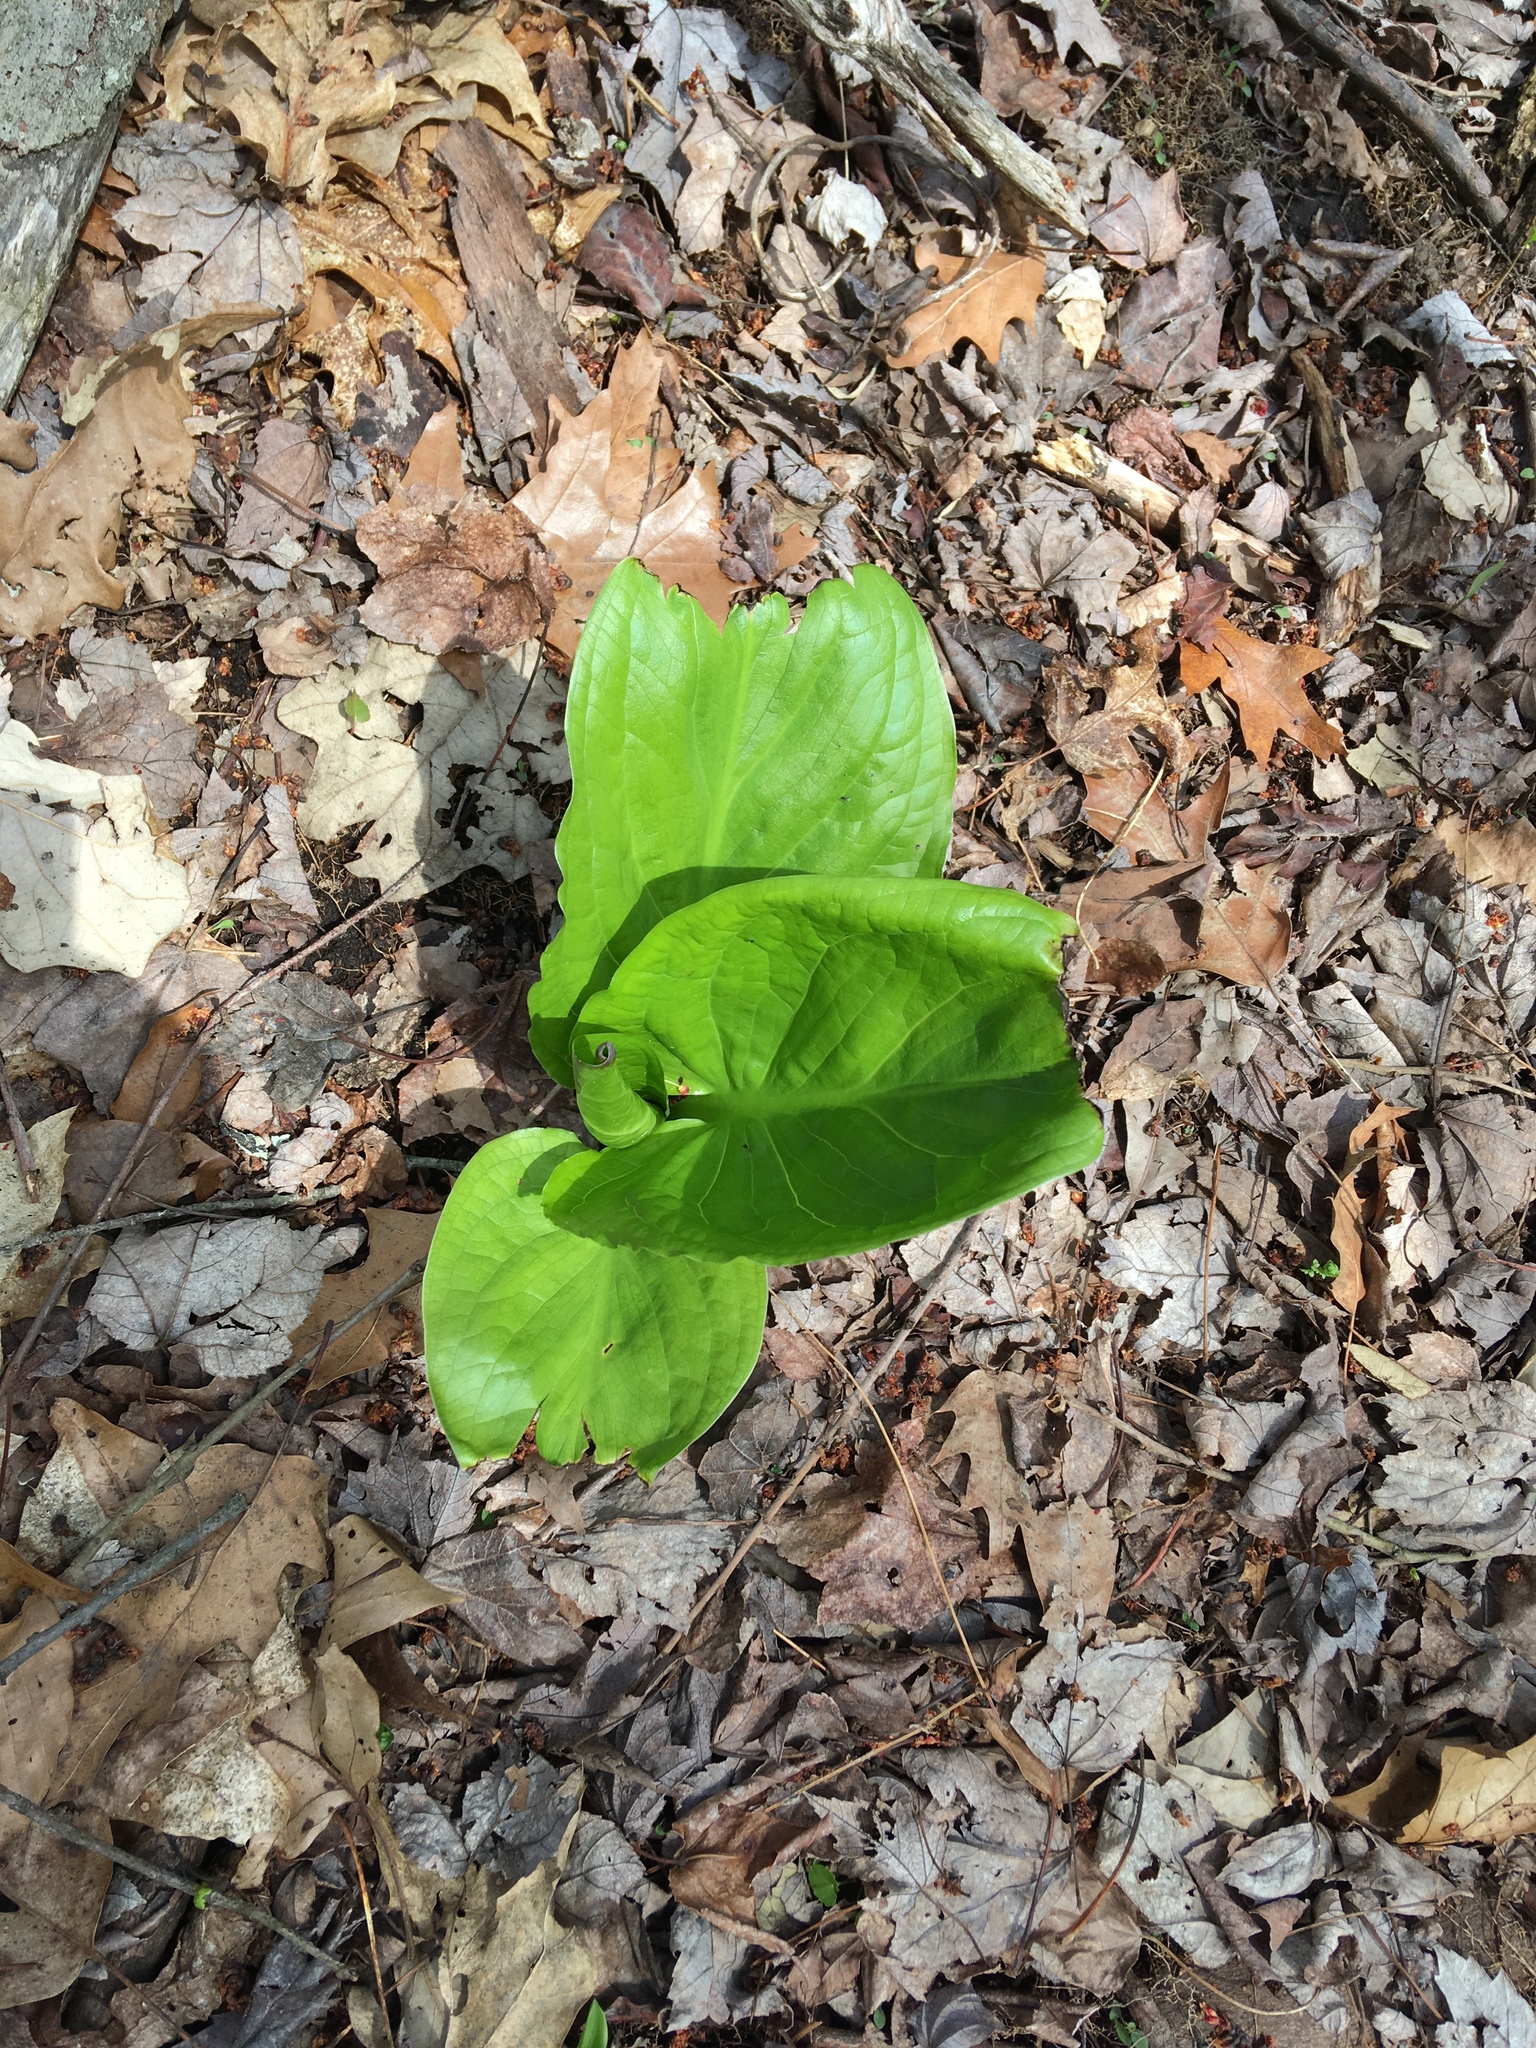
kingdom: Plantae
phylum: Tracheophyta
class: Liliopsida
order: Alismatales
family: Araceae
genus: Symplocarpus
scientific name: Symplocarpus foetidus
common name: Eastern skunk cabbage
